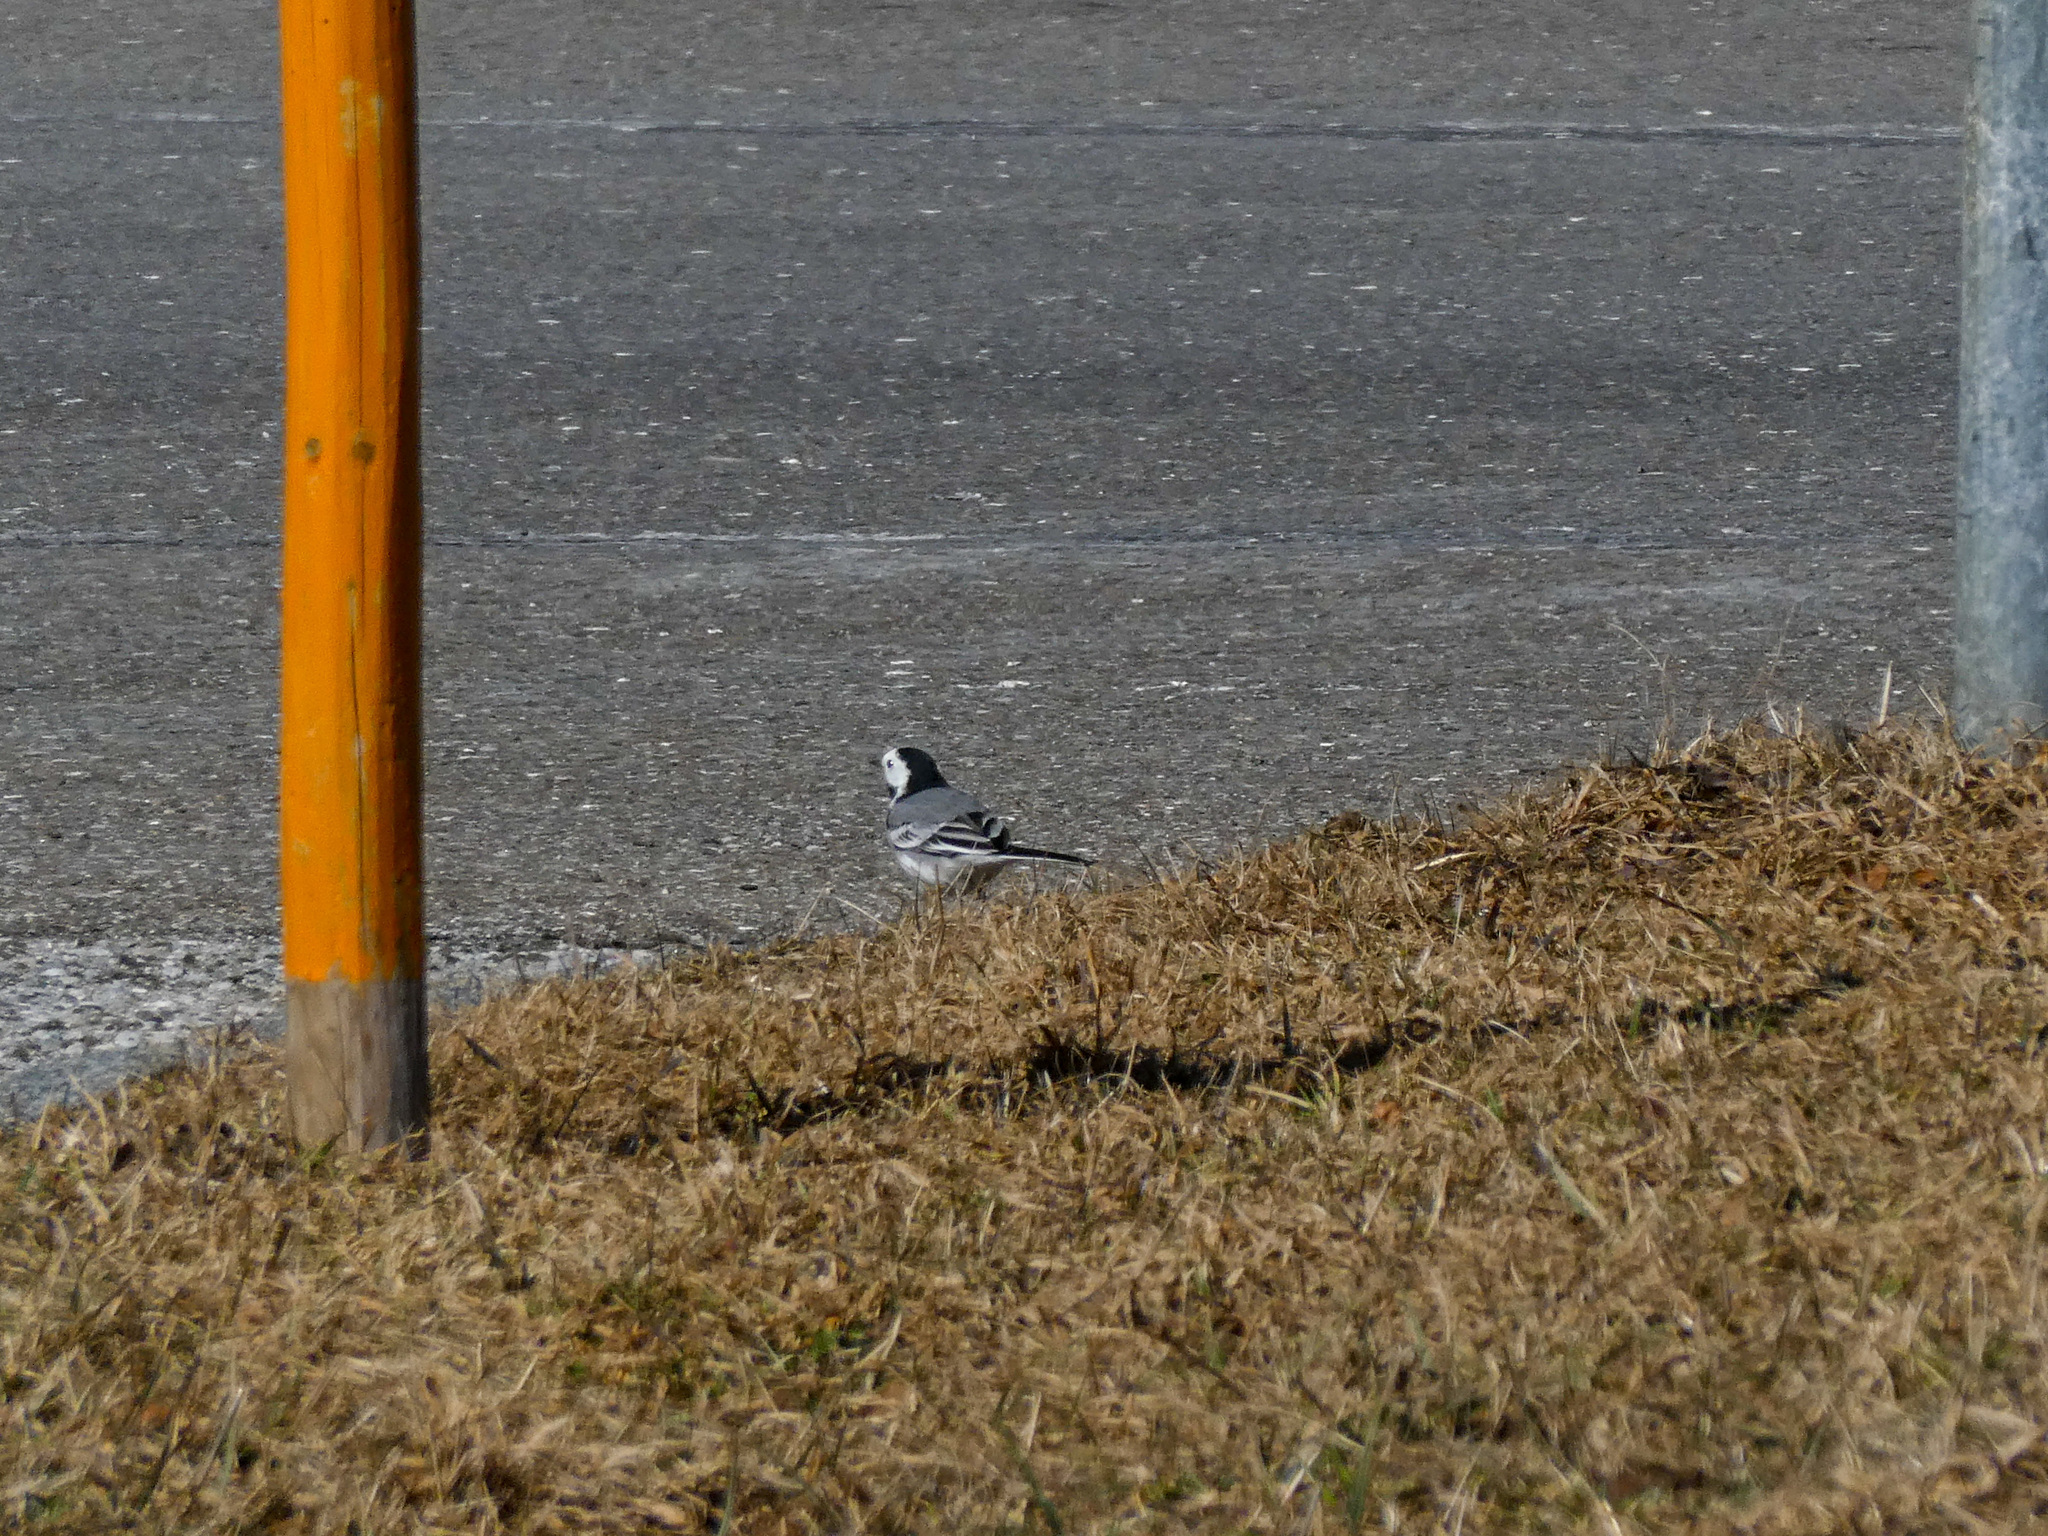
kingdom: Animalia
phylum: Chordata
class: Aves
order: Passeriformes
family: Motacillidae
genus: Motacilla
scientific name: Motacilla alba
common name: White wagtail
